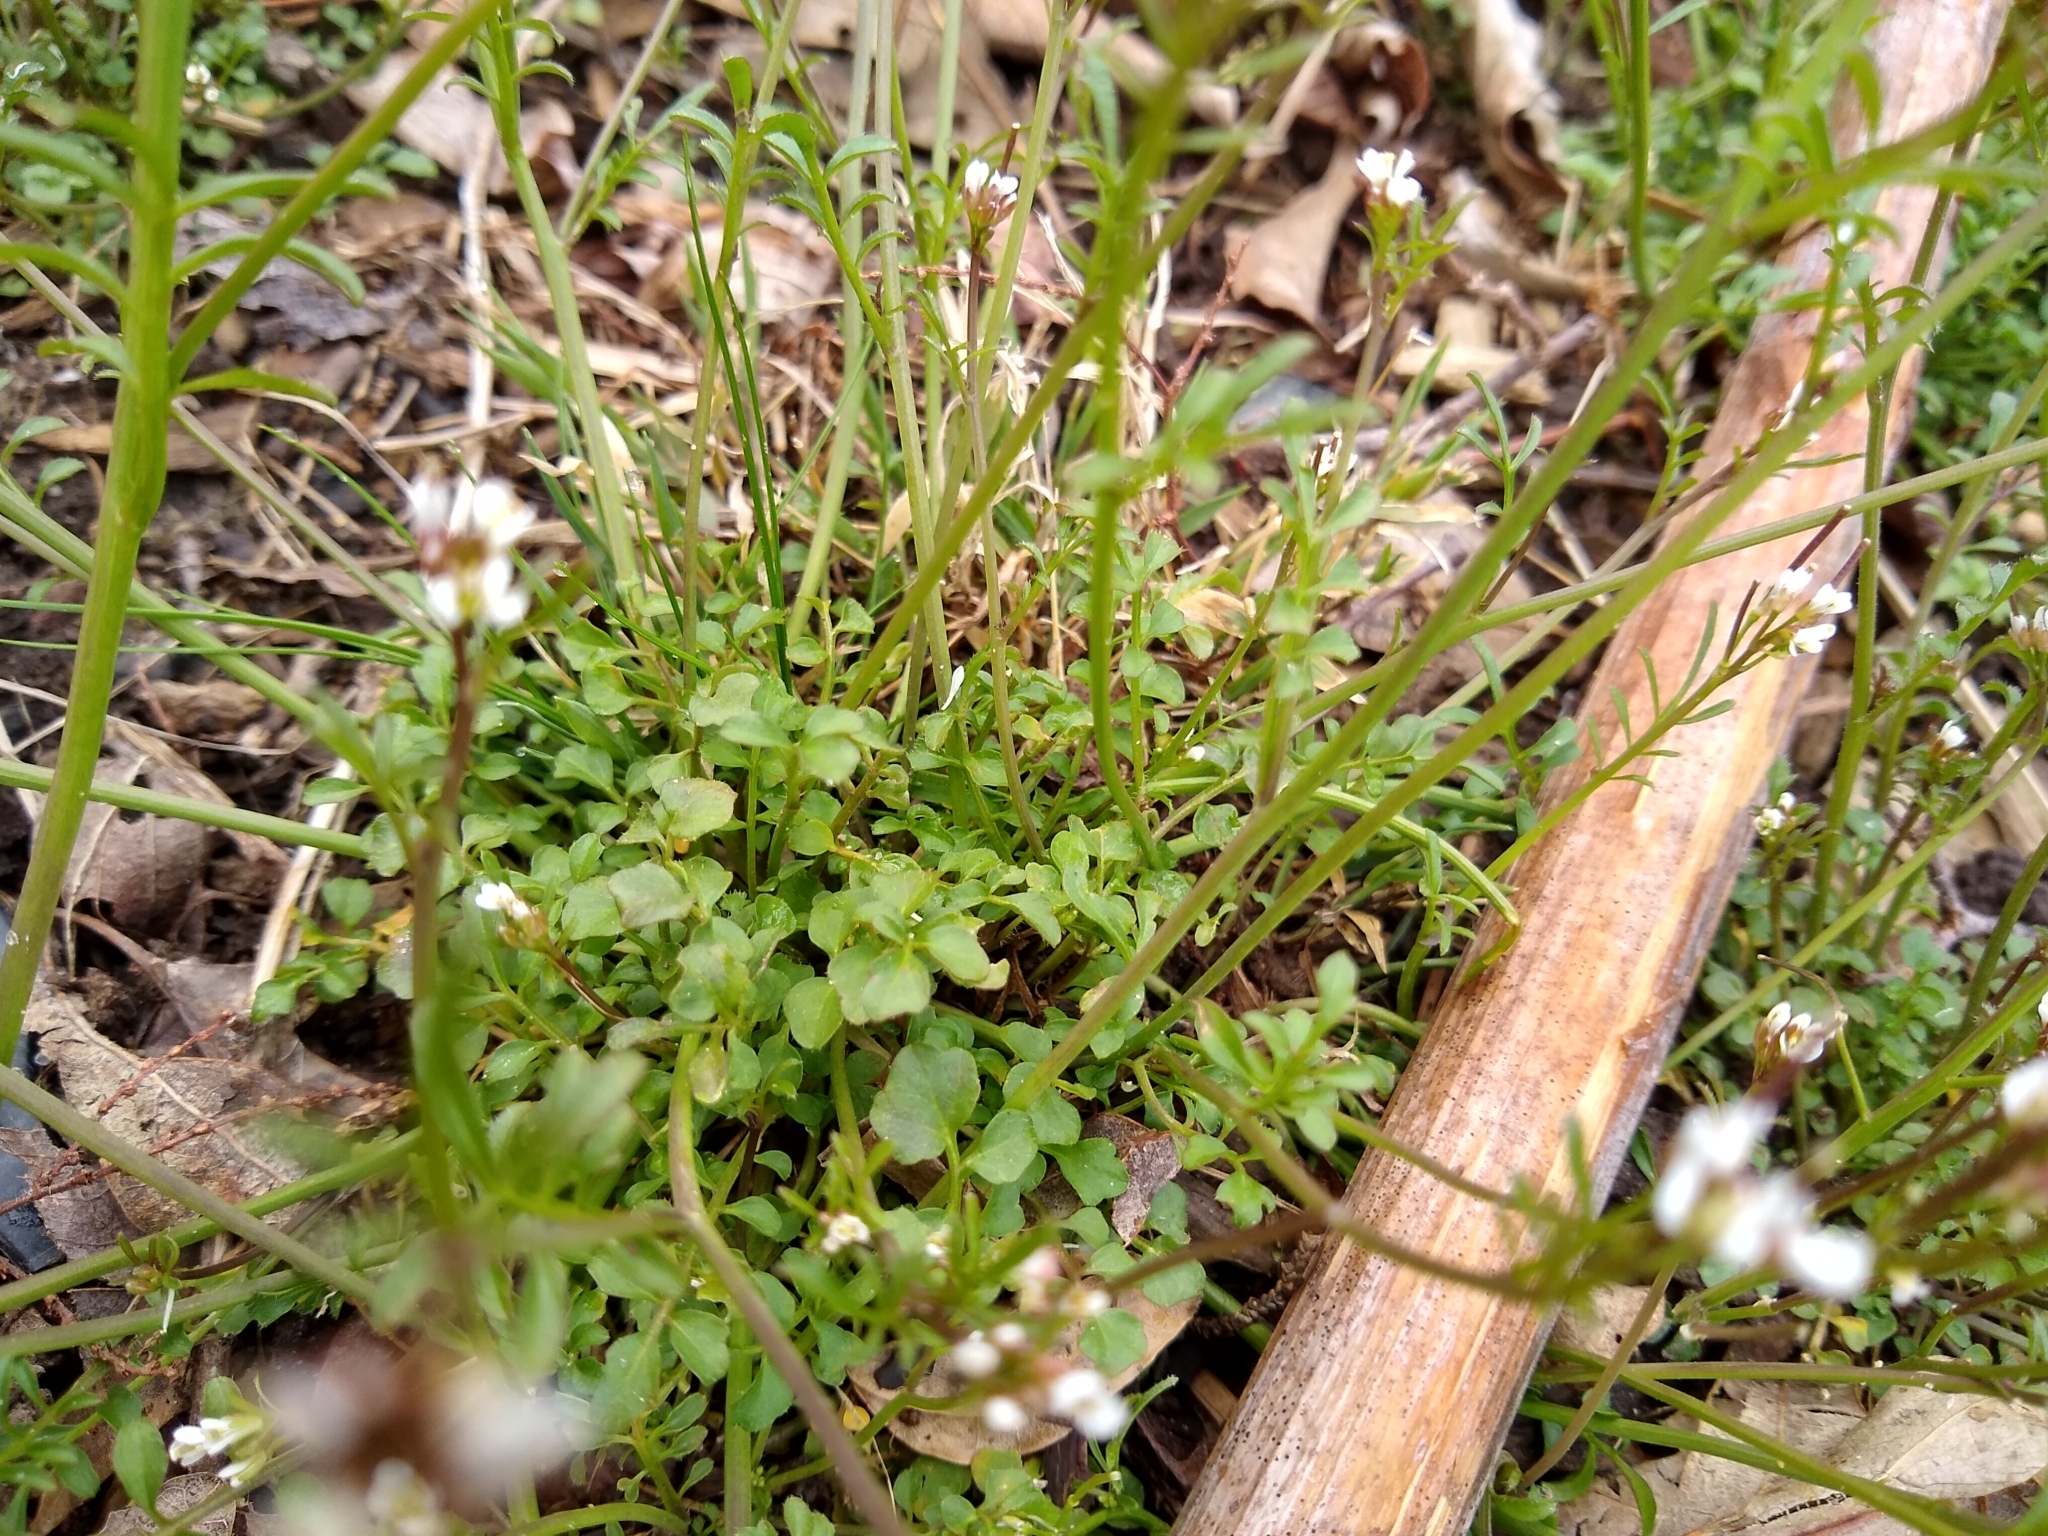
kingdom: Plantae
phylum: Tracheophyta
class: Magnoliopsida
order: Brassicales
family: Brassicaceae
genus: Cardamine
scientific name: Cardamine hirsuta
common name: Hairy bittercress
